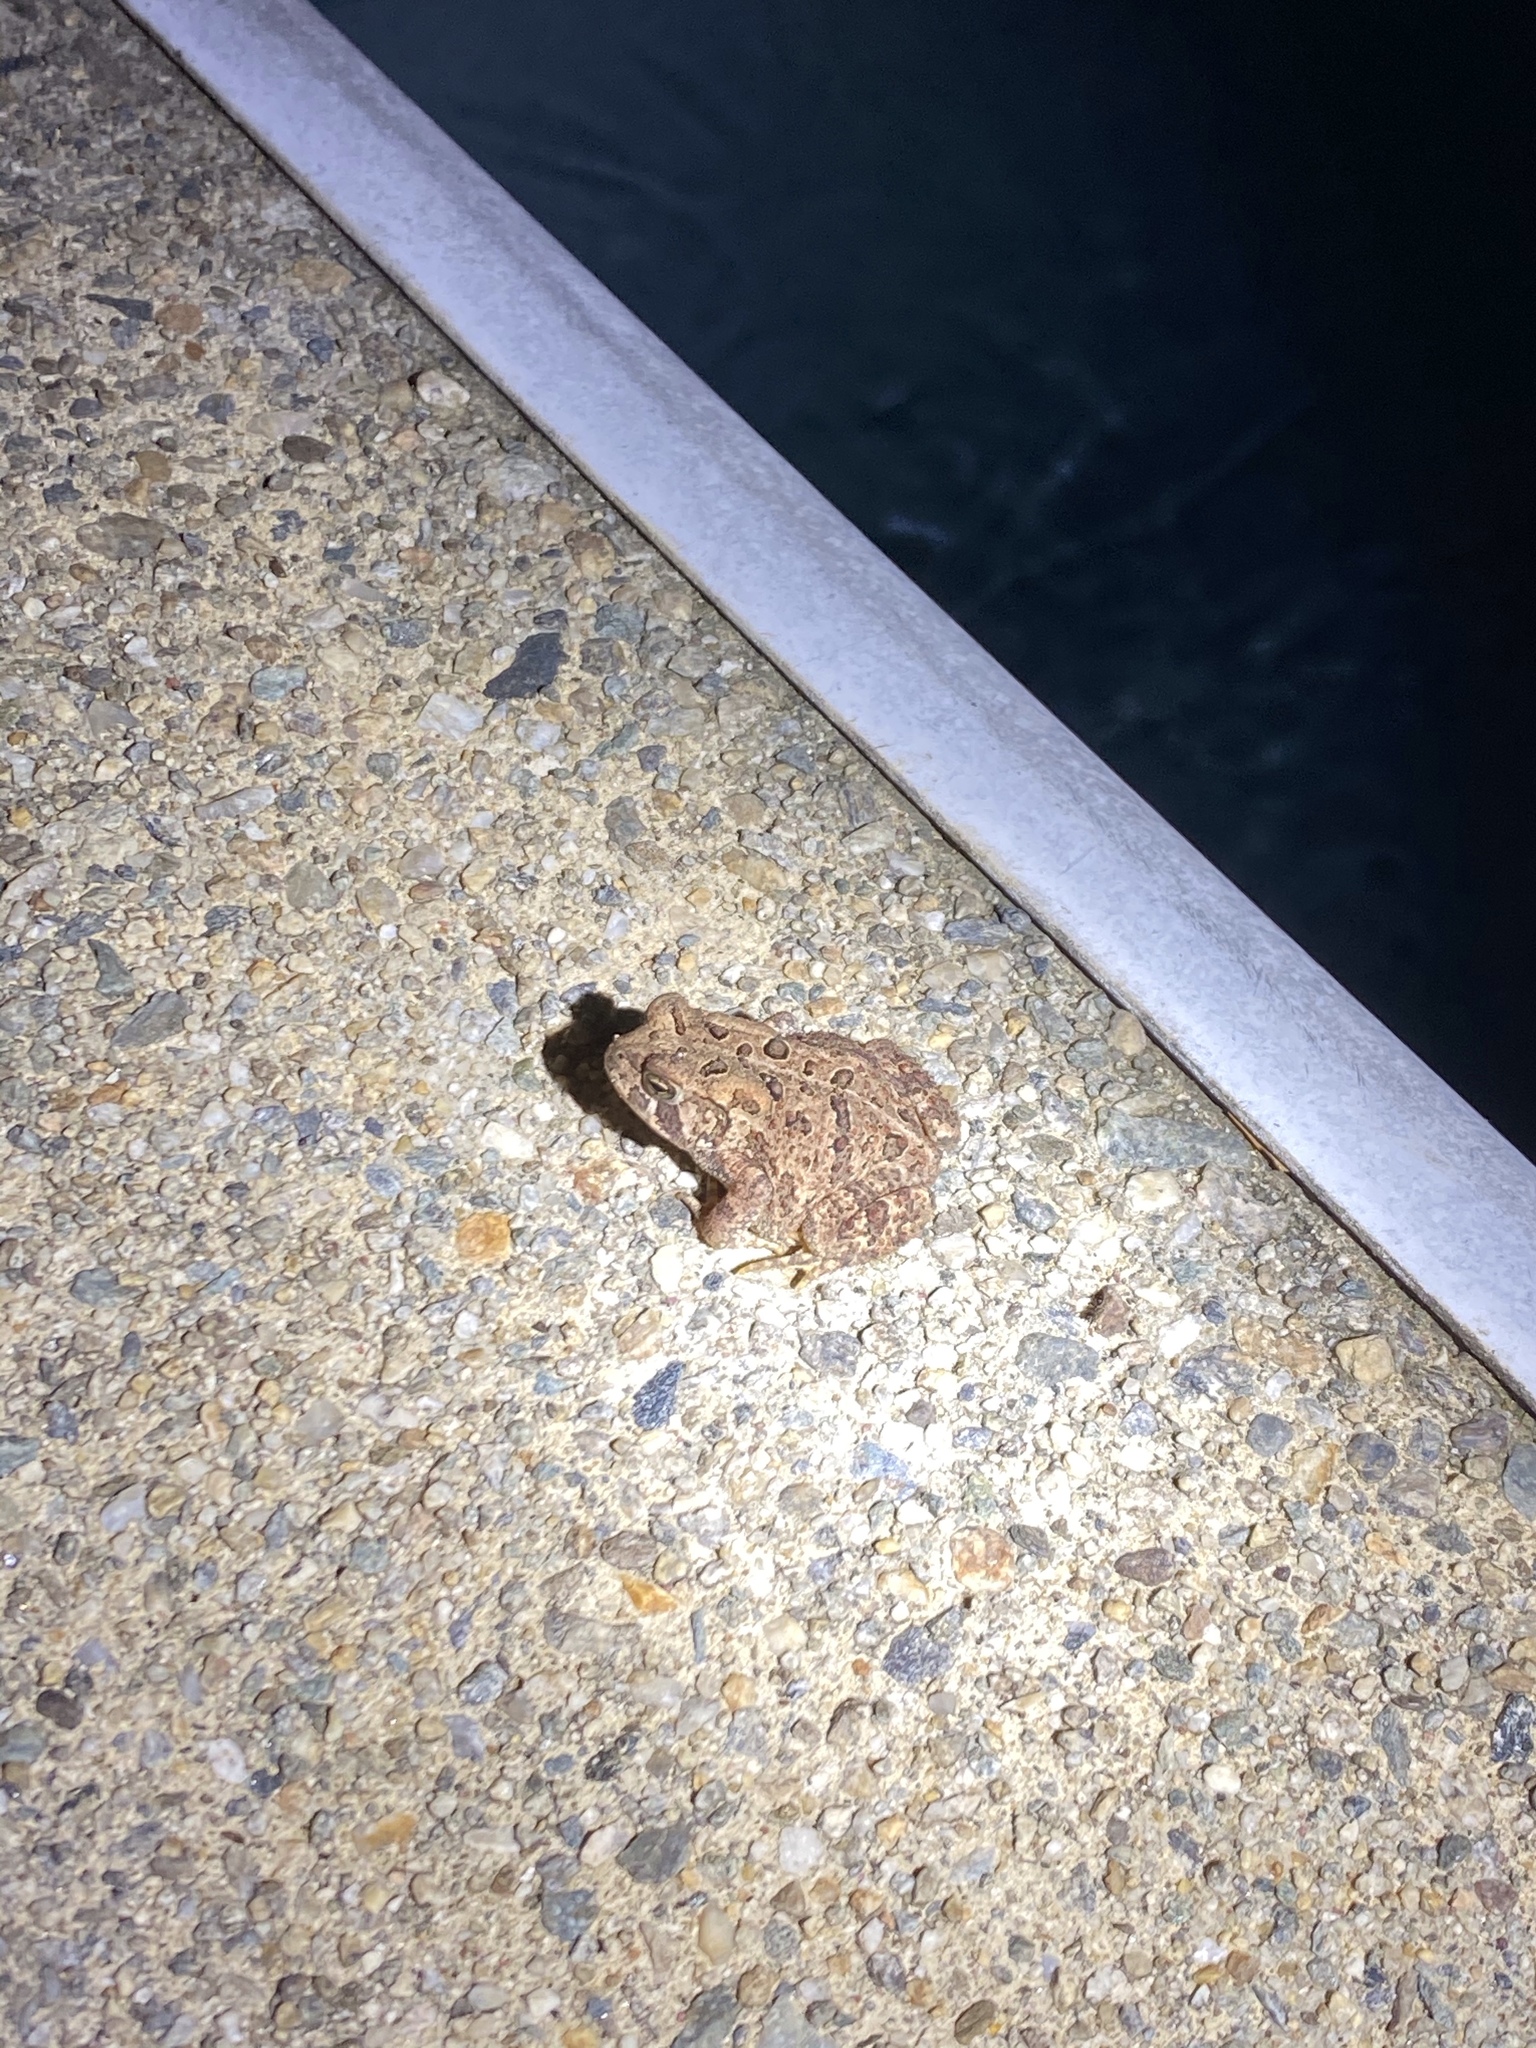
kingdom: Animalia
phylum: Chordata
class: Amphibia
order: Anura
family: Bufonidae
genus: Anaxyrus
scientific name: Anaxyrus americanus
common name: American toad
